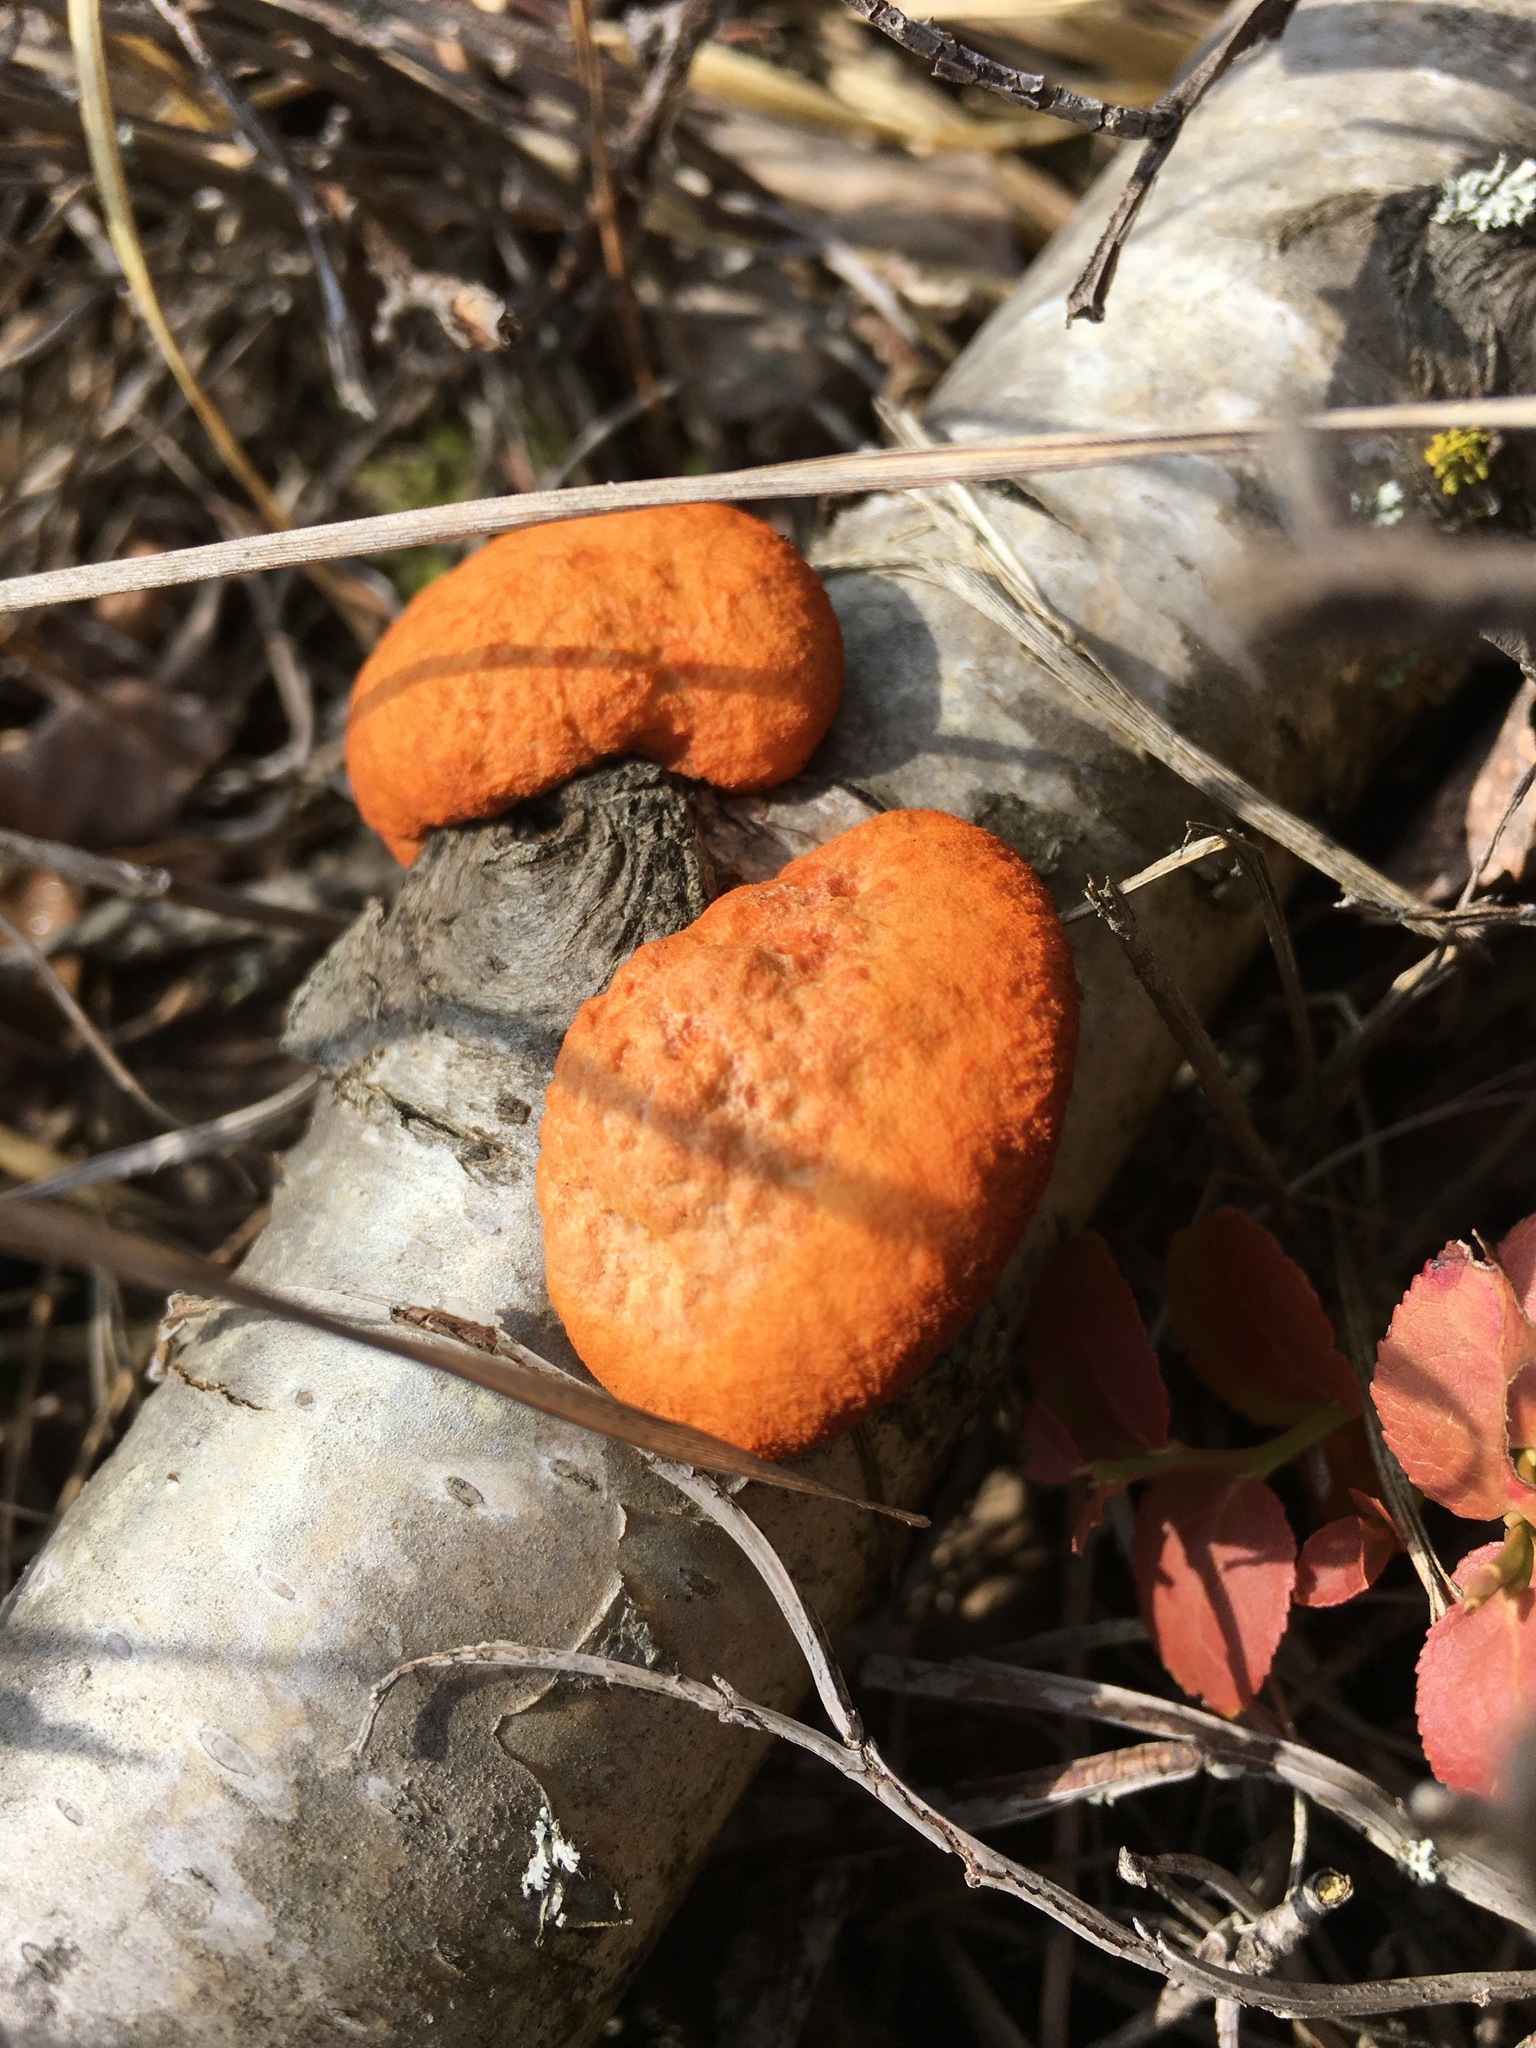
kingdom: Fungi
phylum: Basidiomycota
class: Agaricomycetes
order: Polyporales
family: Polyporaceae
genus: Trametes
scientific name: Trametes cinnabarina
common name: Northern cinnabar polypore
